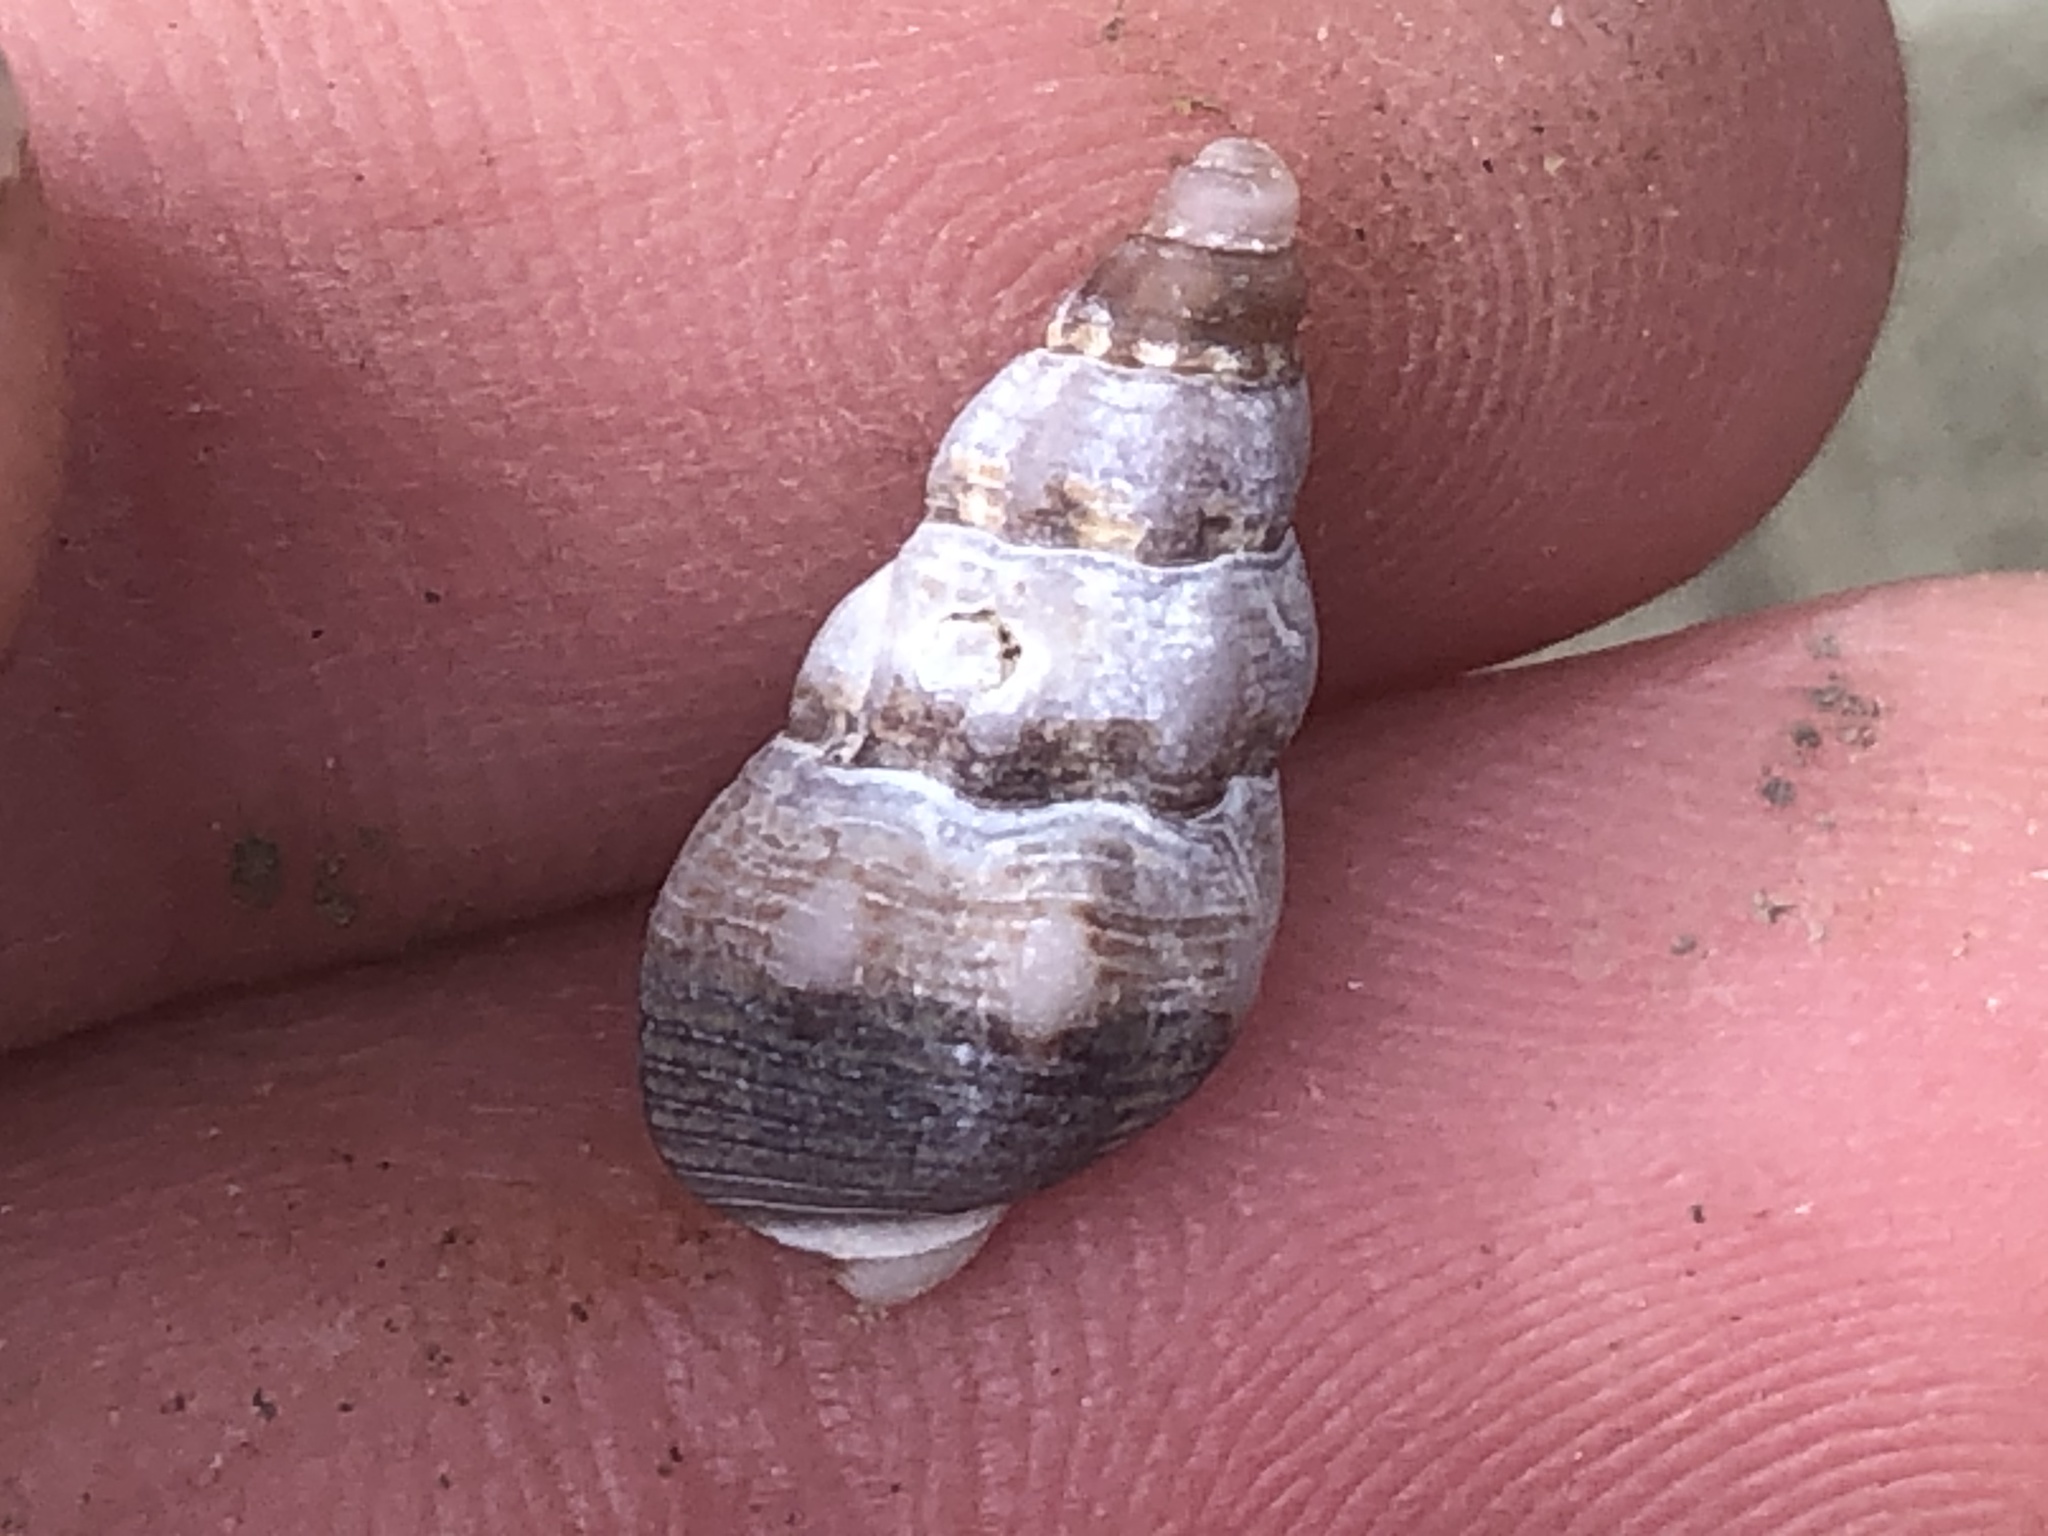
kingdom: Animalia
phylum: Mollusca
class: Gastropoda
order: Neogastropoda
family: Nassariidae
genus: Nassarius
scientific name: Nassarius mendicus
